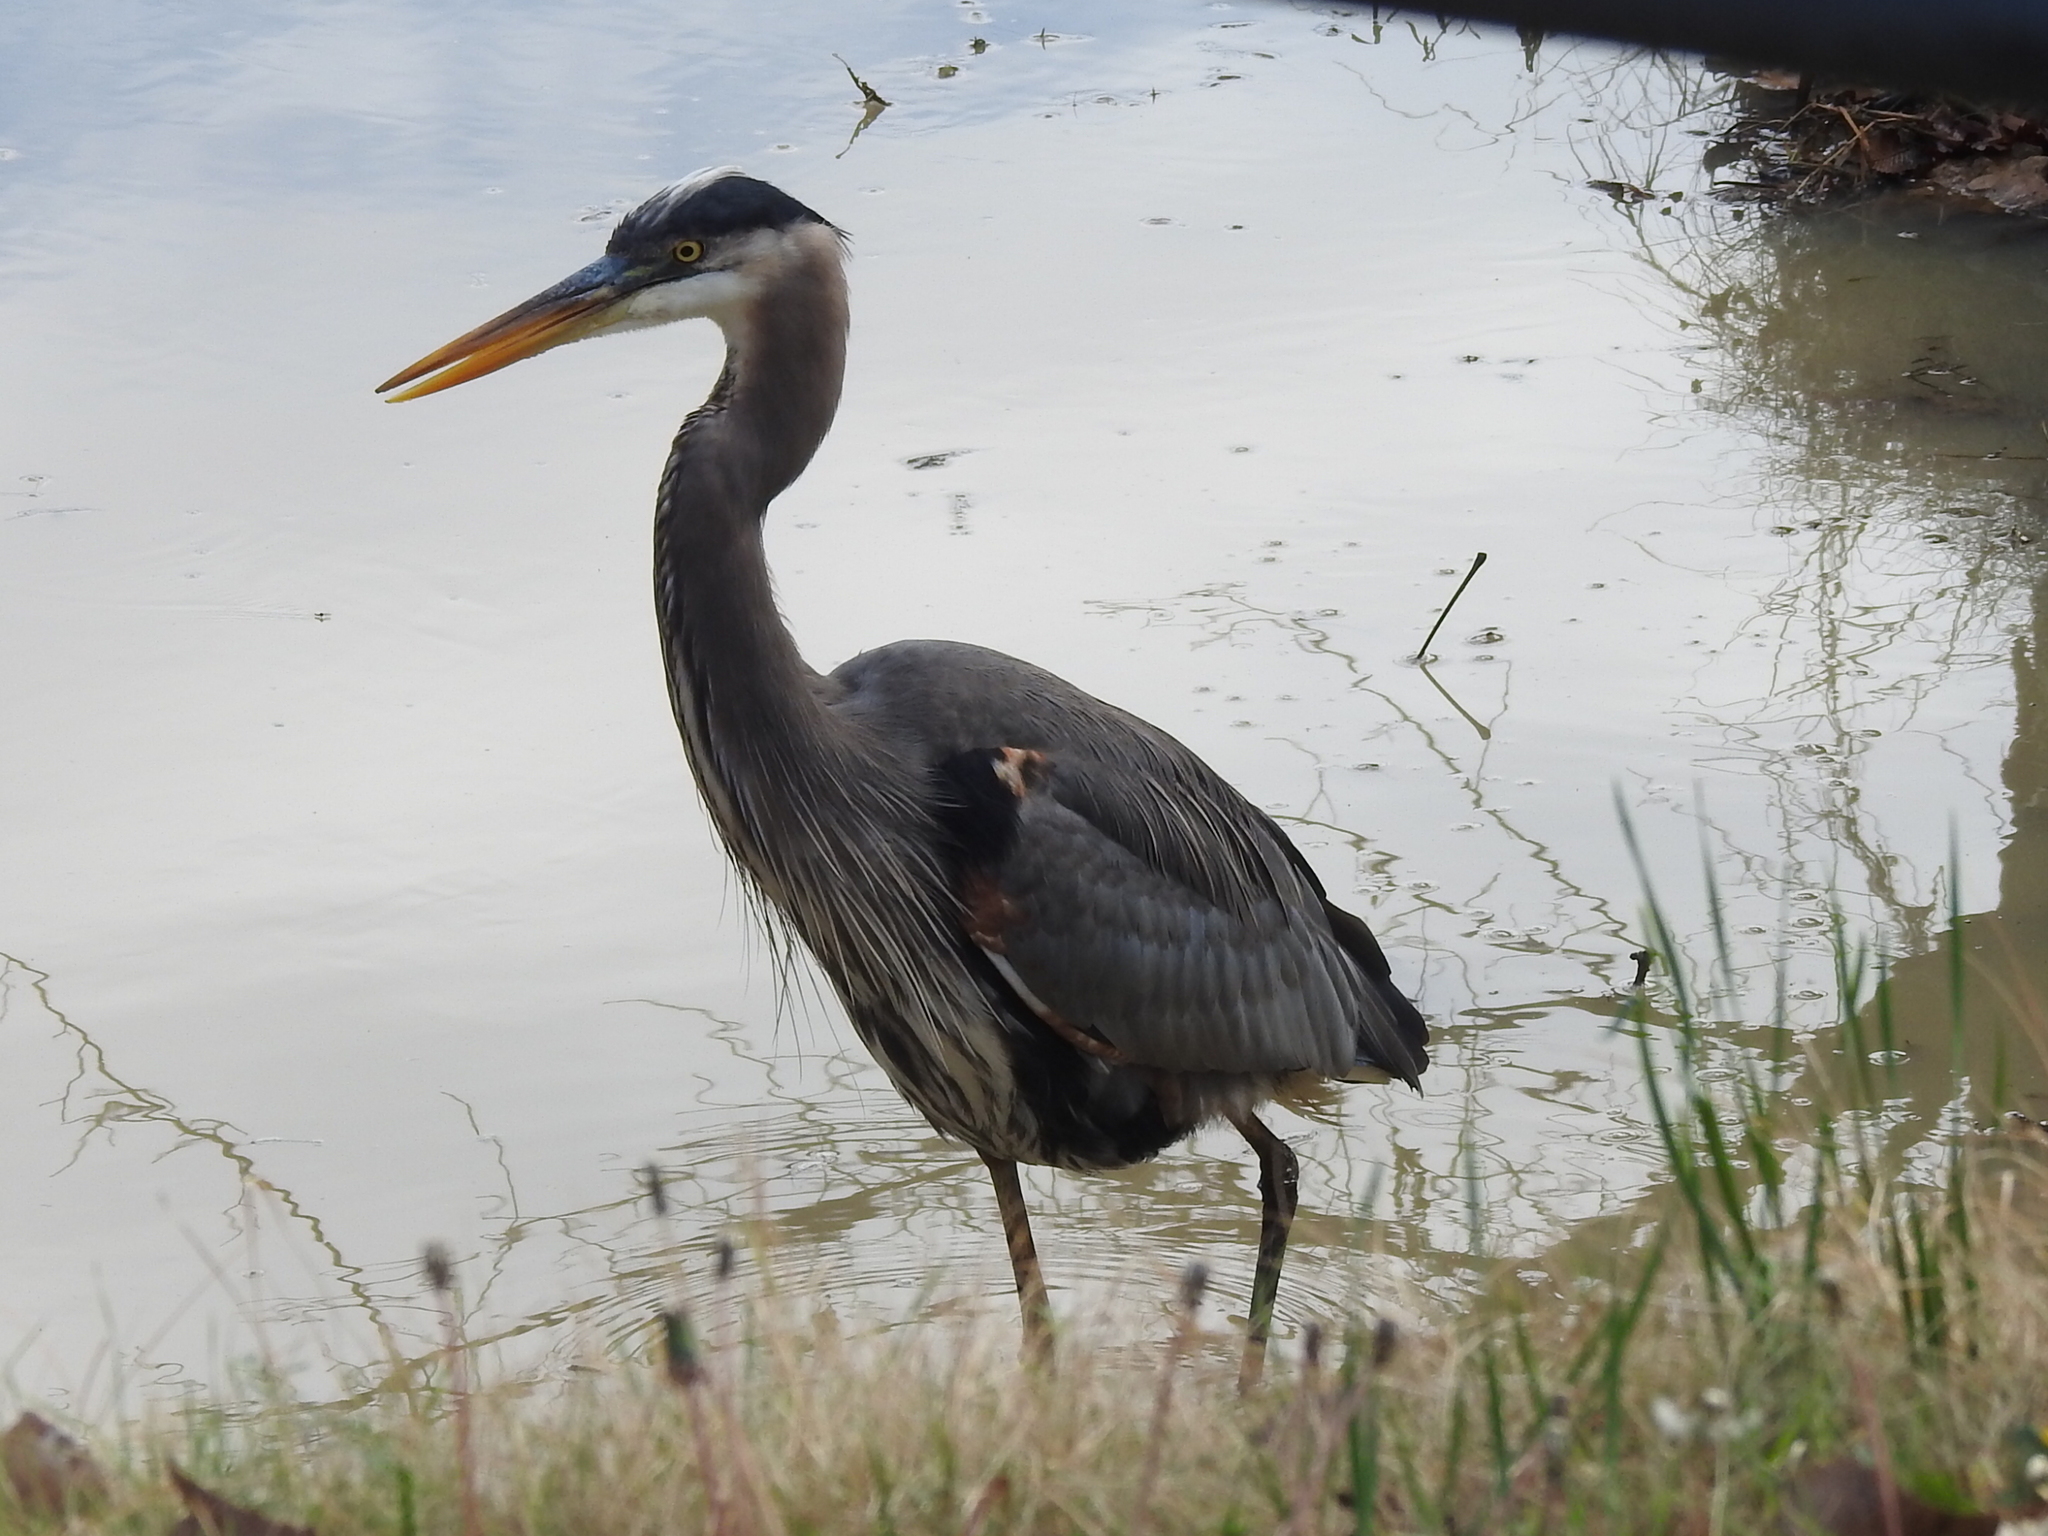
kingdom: Animalia
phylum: Chordata
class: Aves
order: Pelecaniformes
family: Ardeidae
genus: Ardea
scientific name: Ardea herodias
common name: Great blue heron
